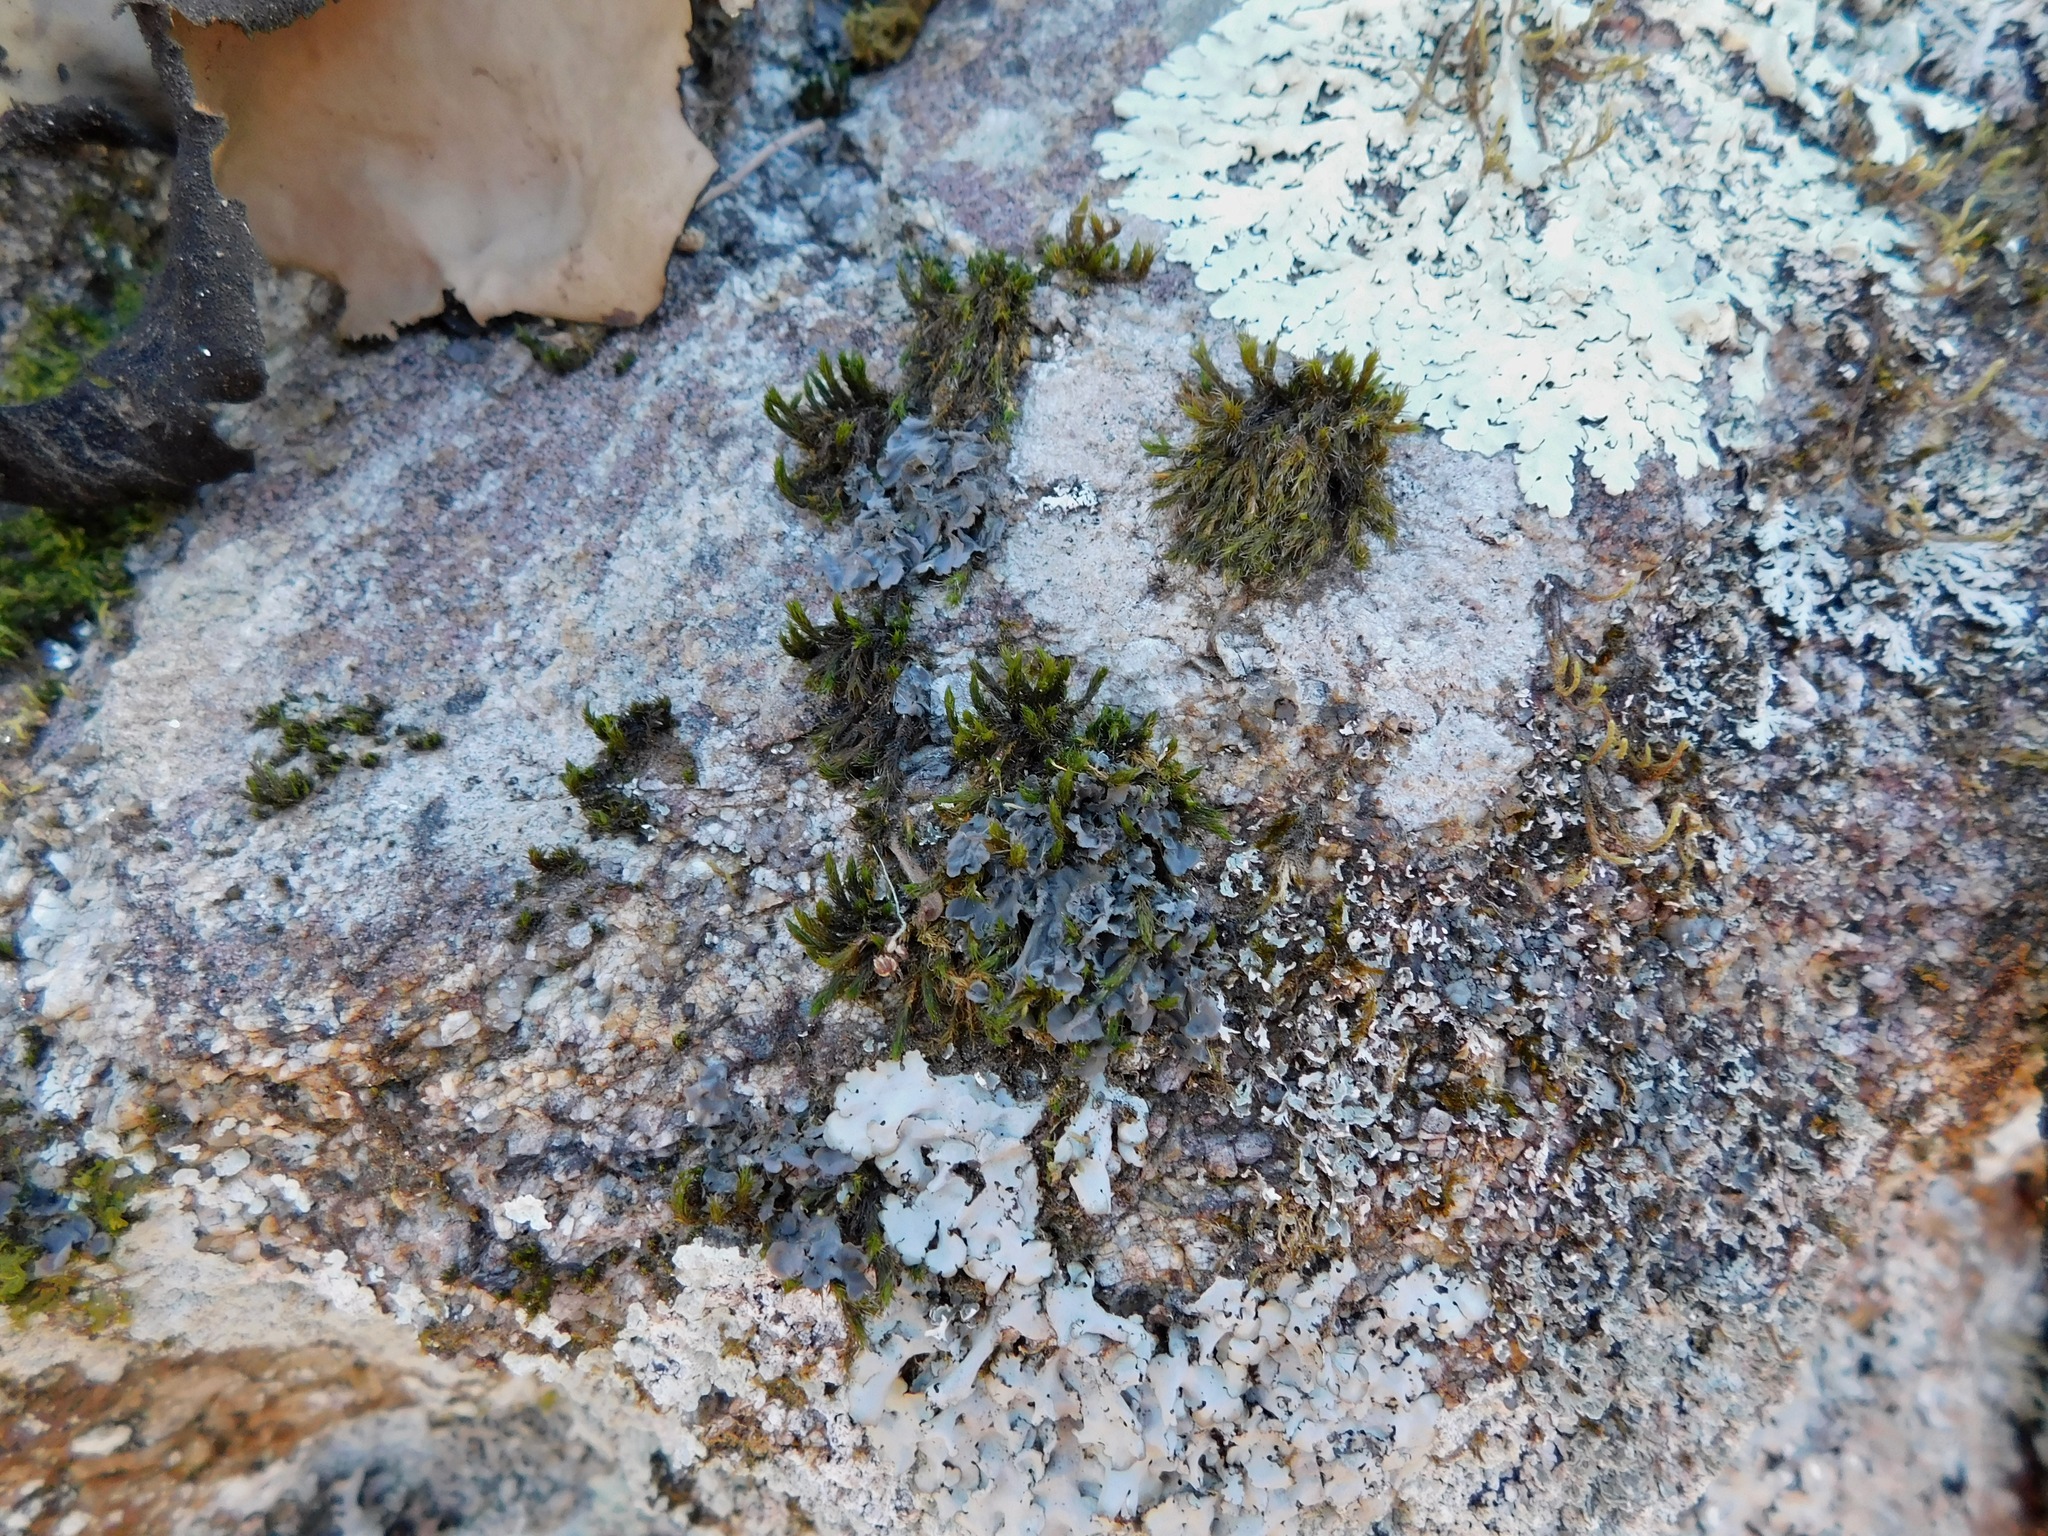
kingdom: Fungi
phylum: Ascomycota
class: Lecanoromycetes
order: Peltigerales
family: Collemataceae
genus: Leptogium
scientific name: Leptogium cyanescens
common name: Blue jellyskin
